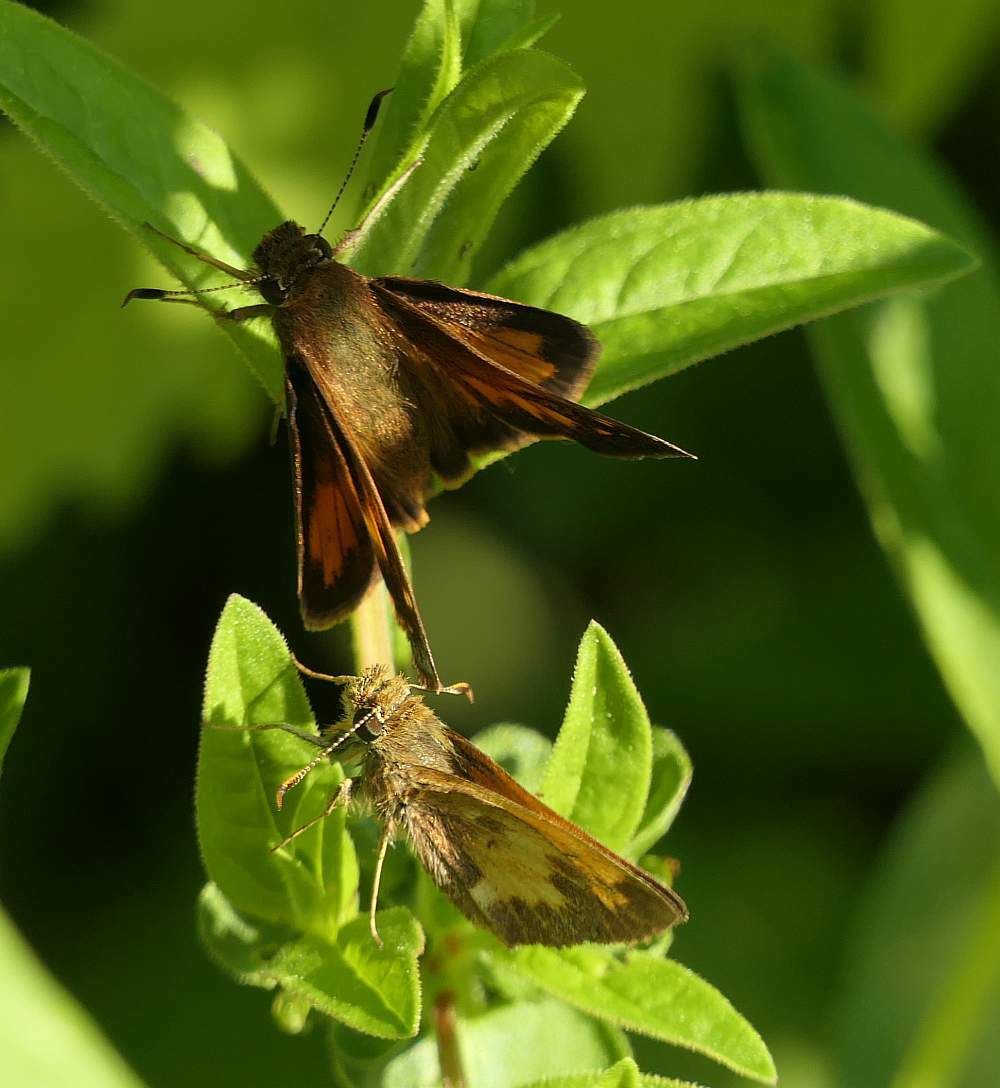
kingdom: Animalia
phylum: Arthropoda
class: Insecta
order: Lepidoptera
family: Hesperiidae
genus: Lon
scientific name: Lon hobomok
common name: Hobomok skipper
